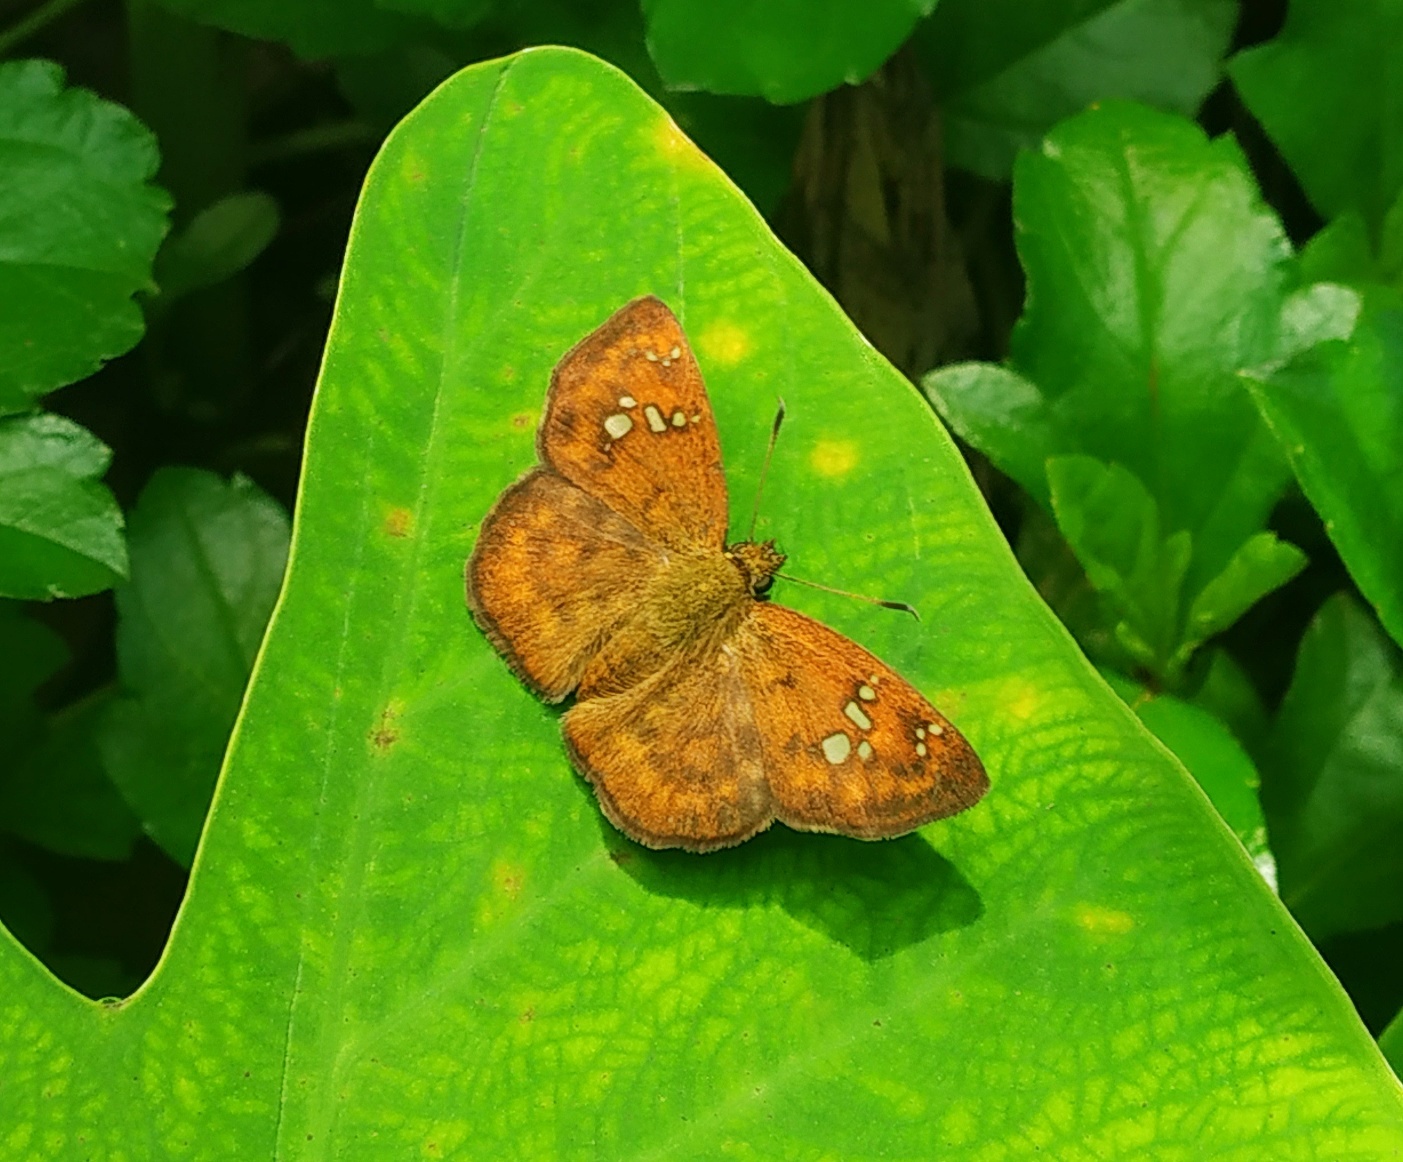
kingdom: Animalia
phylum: Arthropoda
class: Insecta
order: Lepidoptera
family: Hesperiidae
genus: Pseudocoladenia
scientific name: Pseudocoladenia dan
